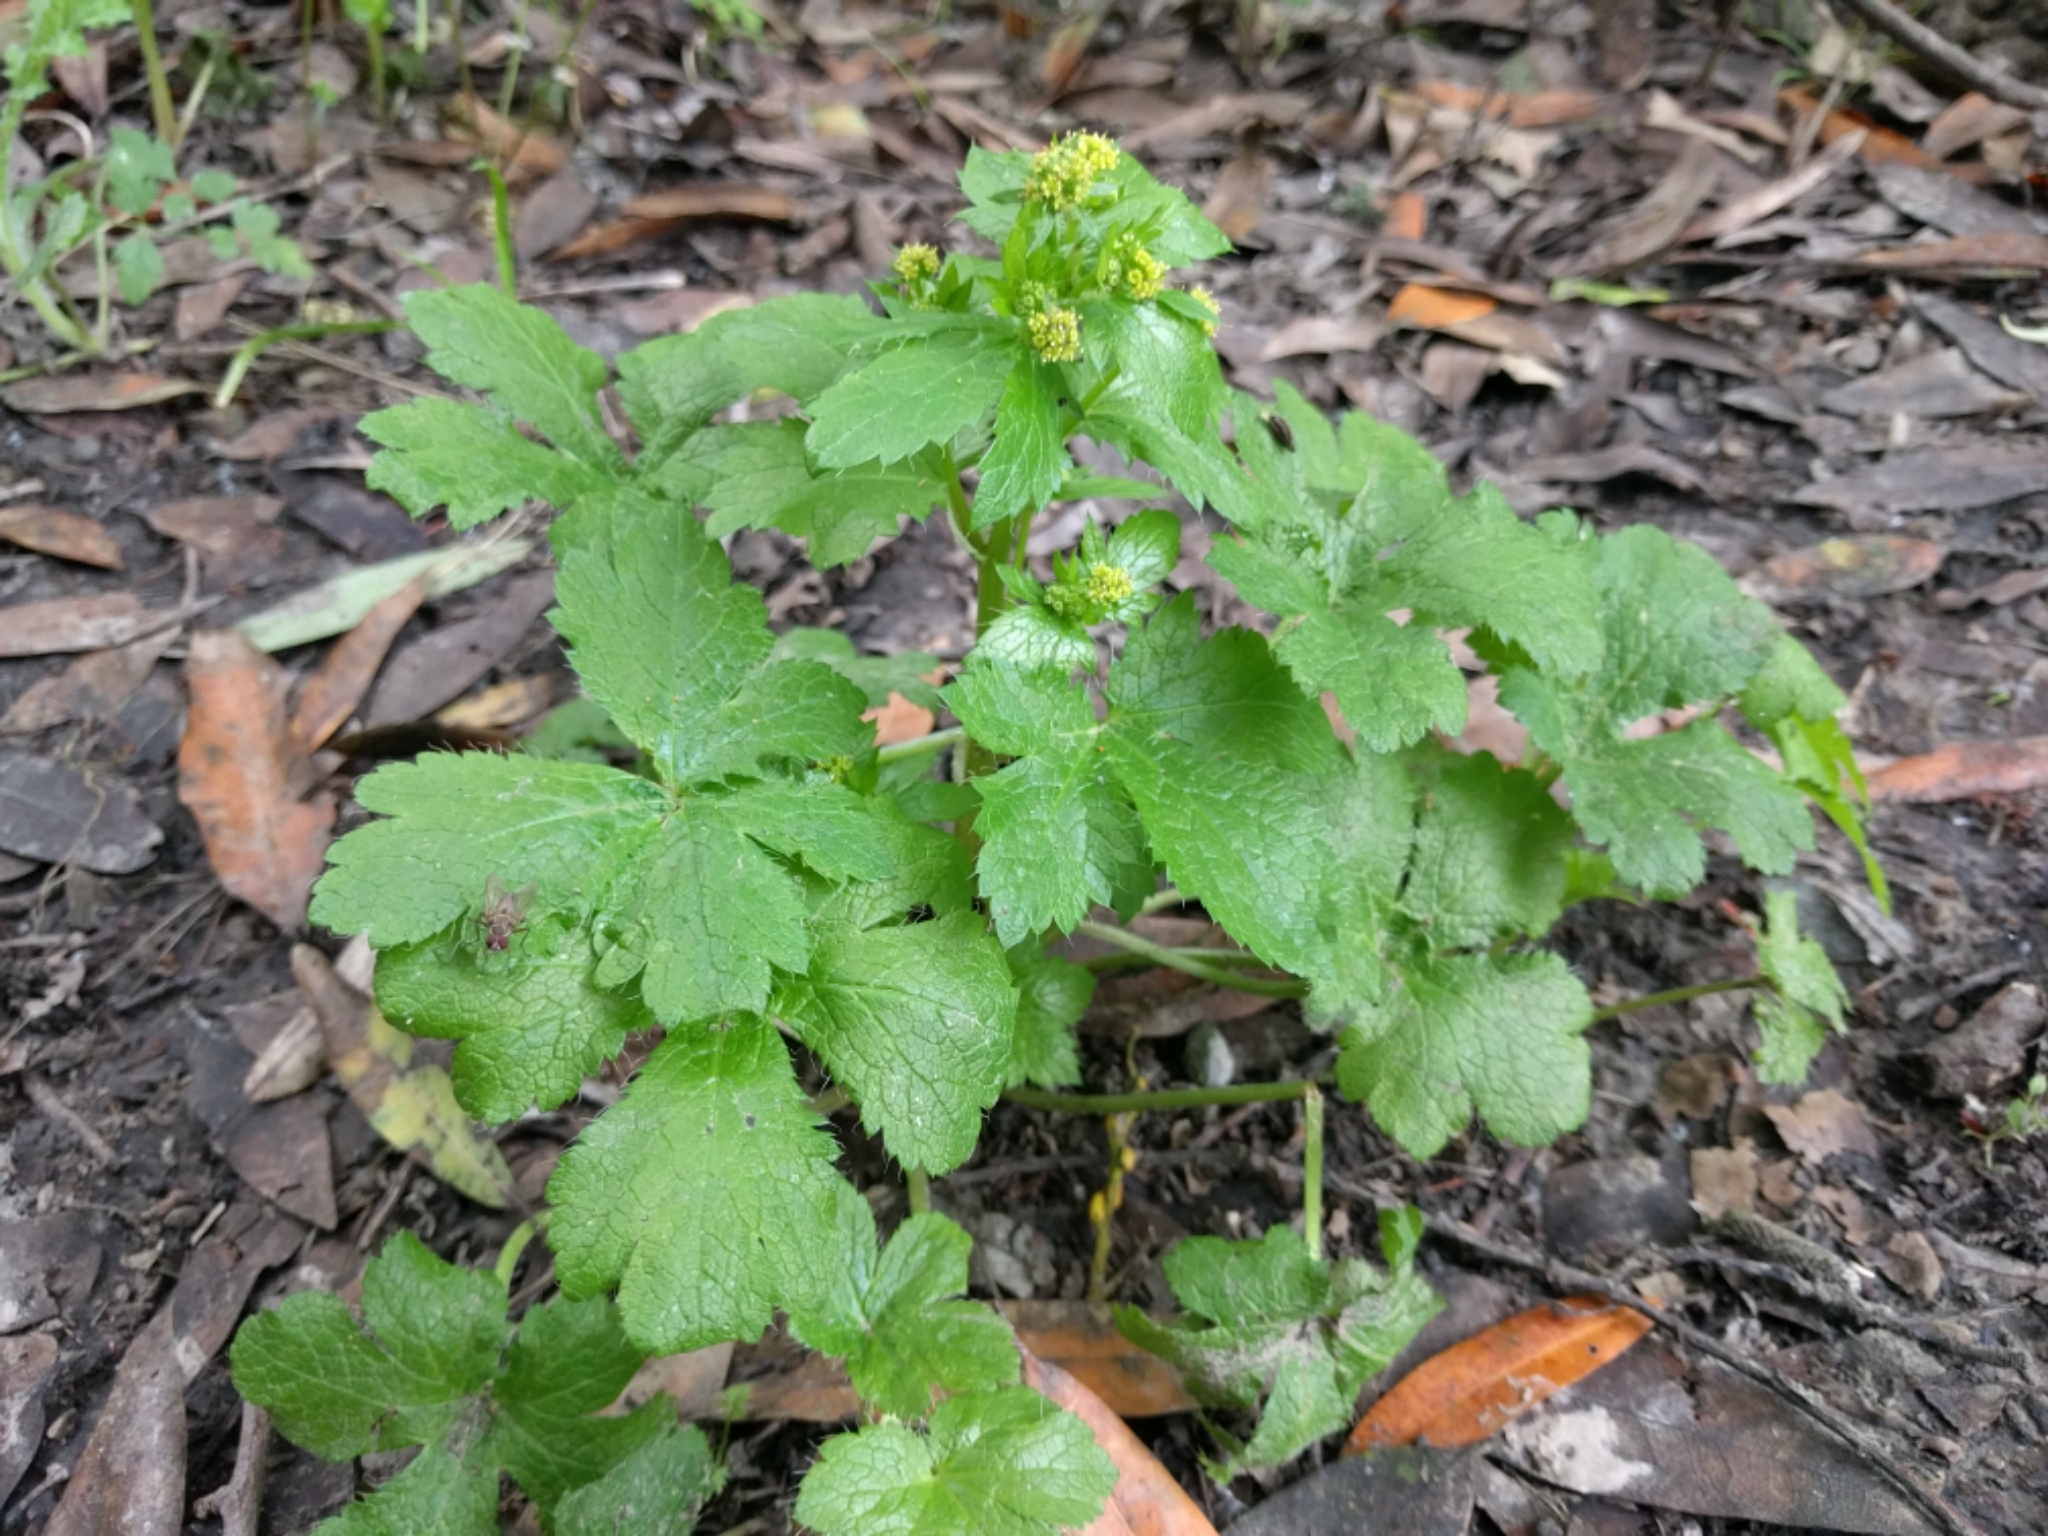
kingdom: Plantae
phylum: Tracheophyta
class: Magnoliopsida
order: Apiales
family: Apiaceae
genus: Sanicula
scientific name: Sanicula crassicaulis
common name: Western snakeroot
